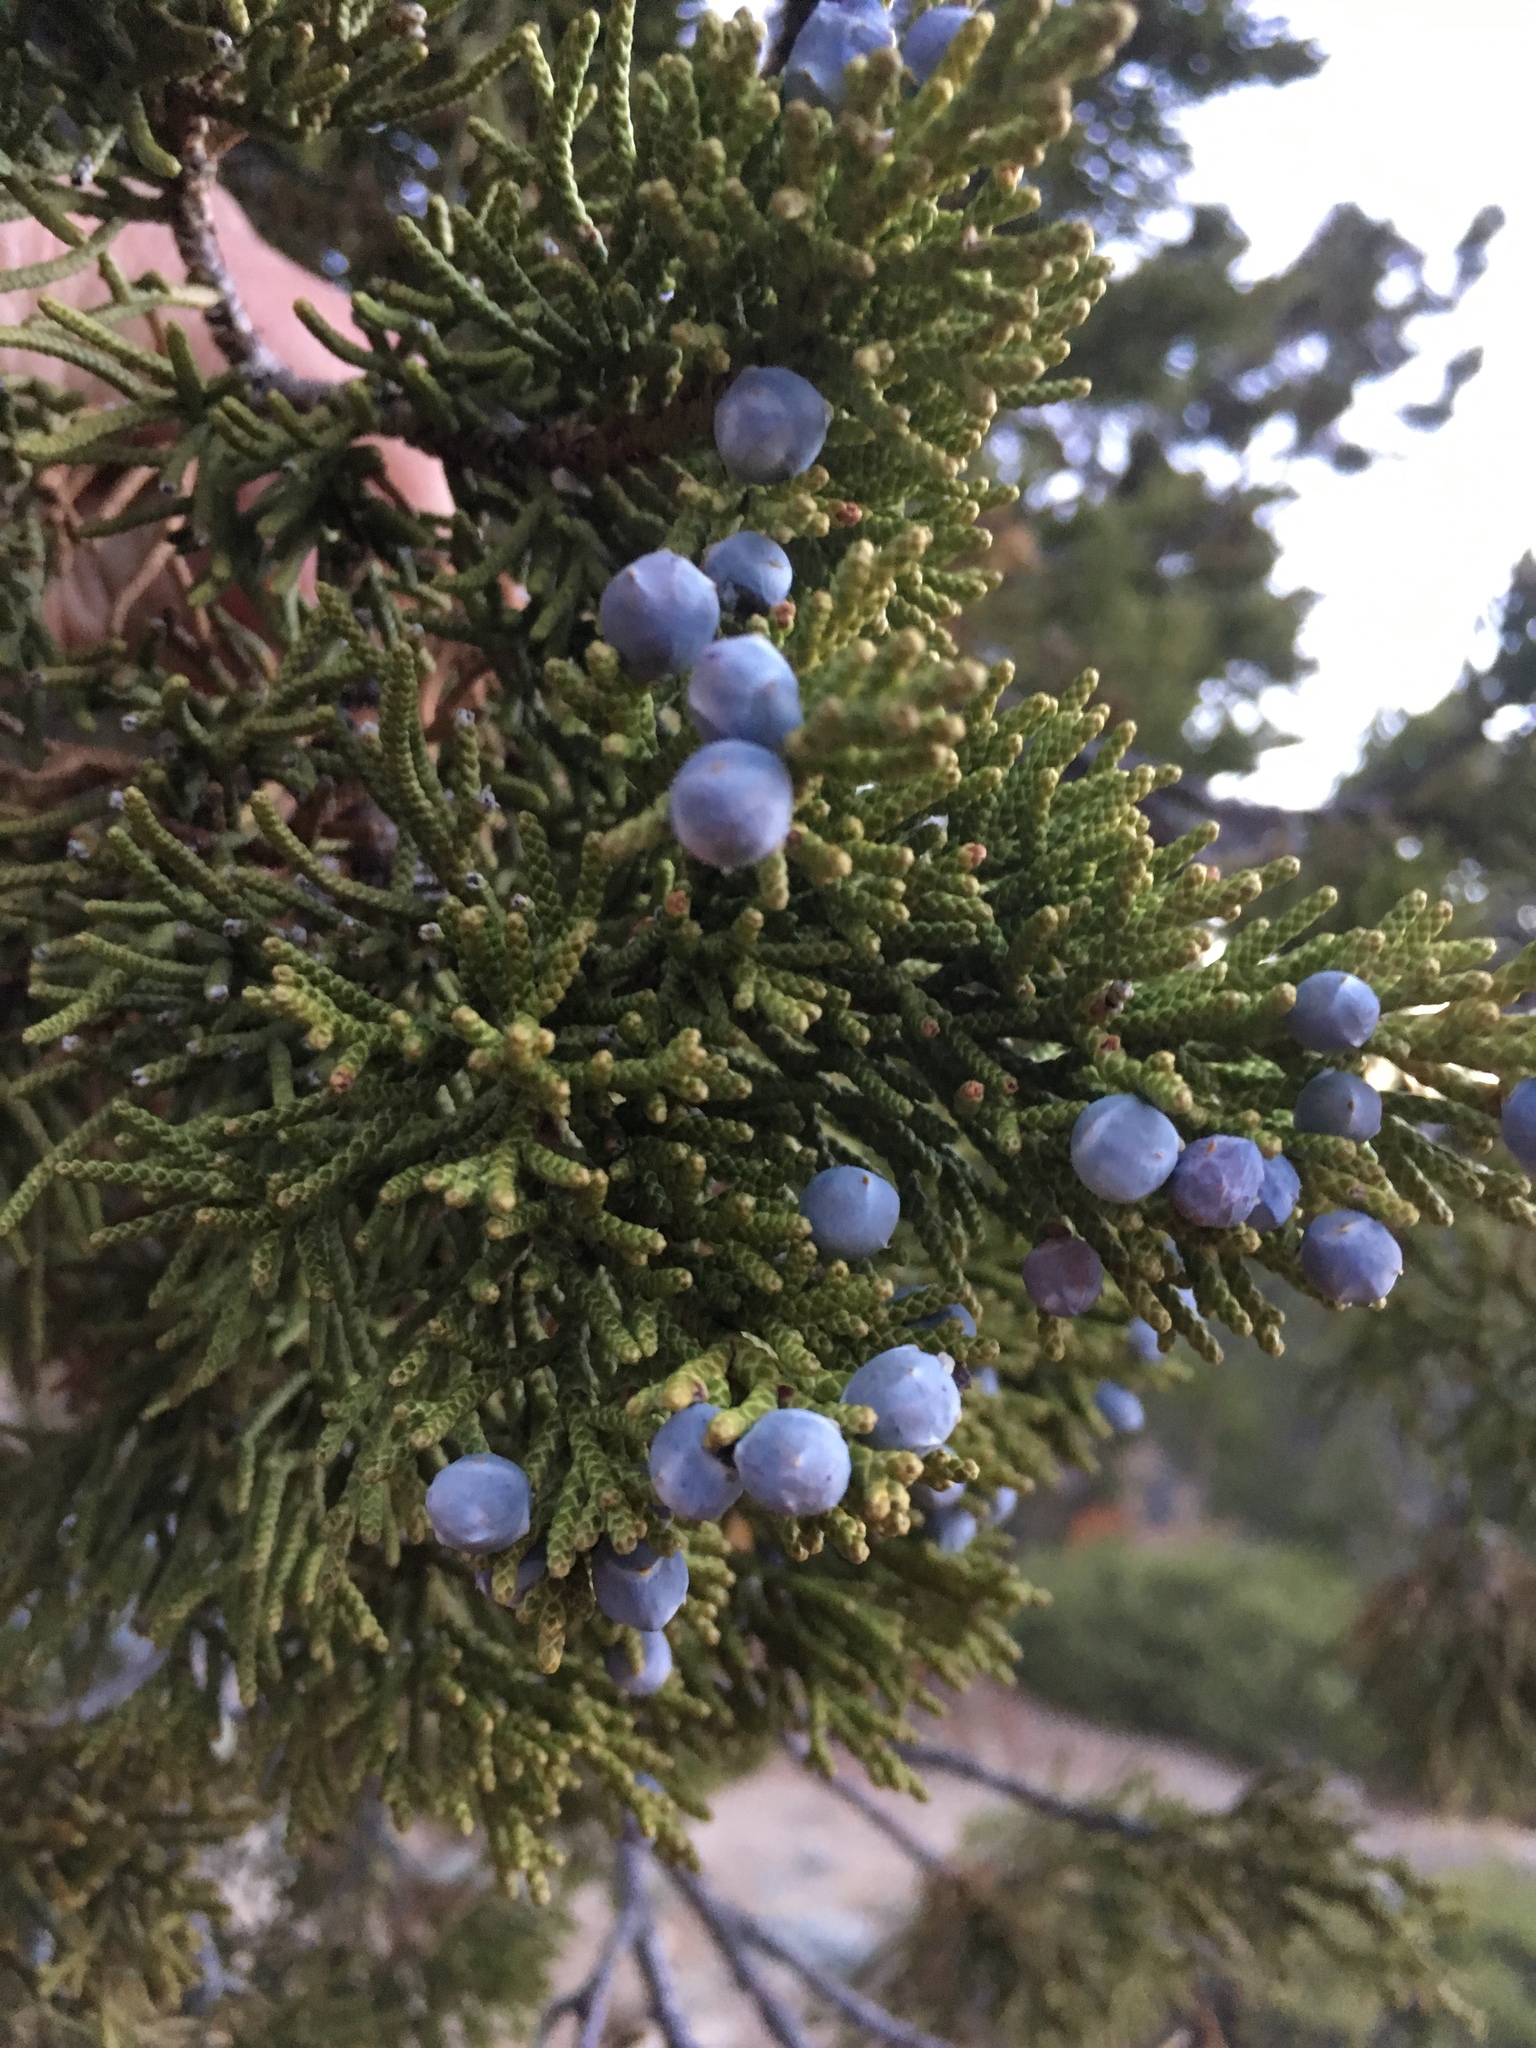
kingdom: Plantae
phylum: Tracheophyta
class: Pinopsida
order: Pinales
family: Cupressaceae
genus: Juniperus
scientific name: Juniperus occidentalis
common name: Western juniper
